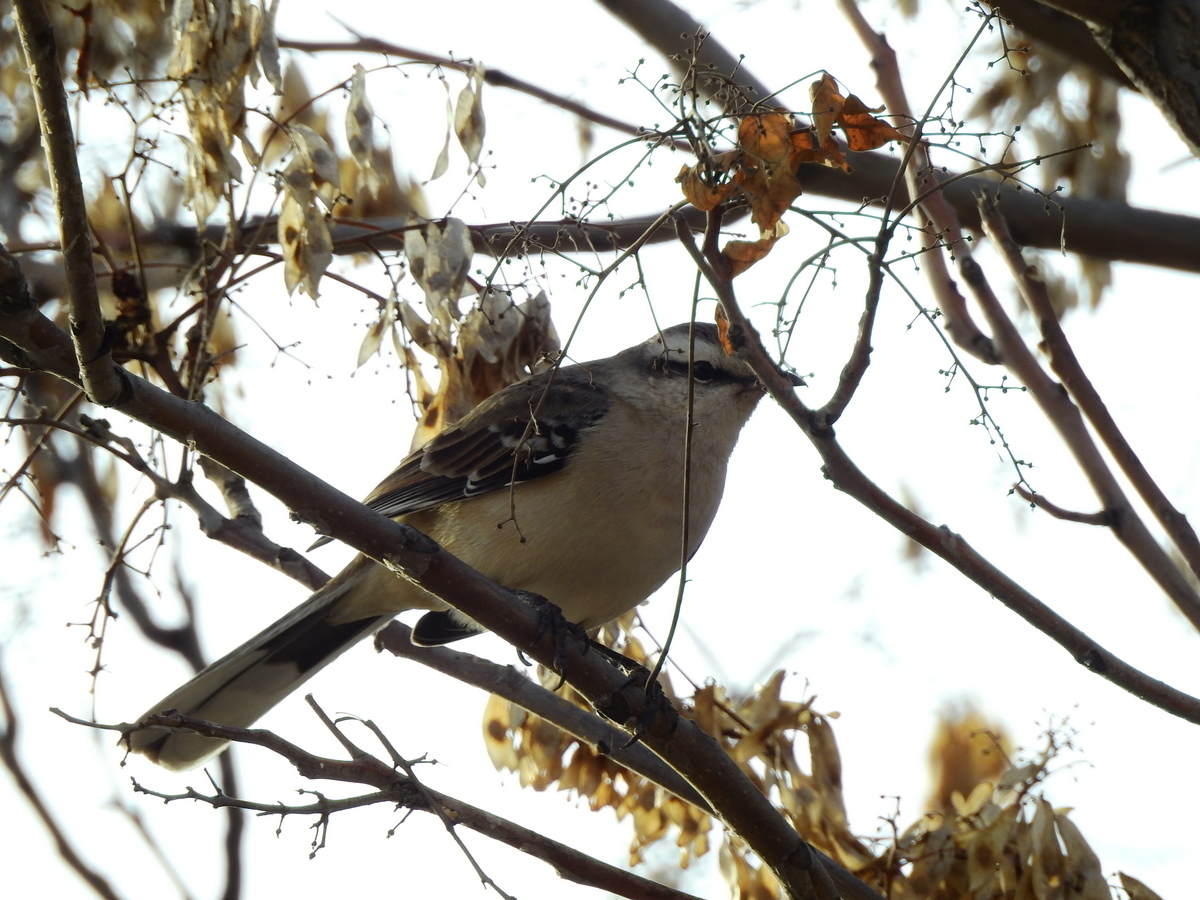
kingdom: Animalia
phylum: Chordata
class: Aves
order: Passeriformes
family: Mimidae
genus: Mimus
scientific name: Mimus saturninus
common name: Chalk-browed mockingbird
